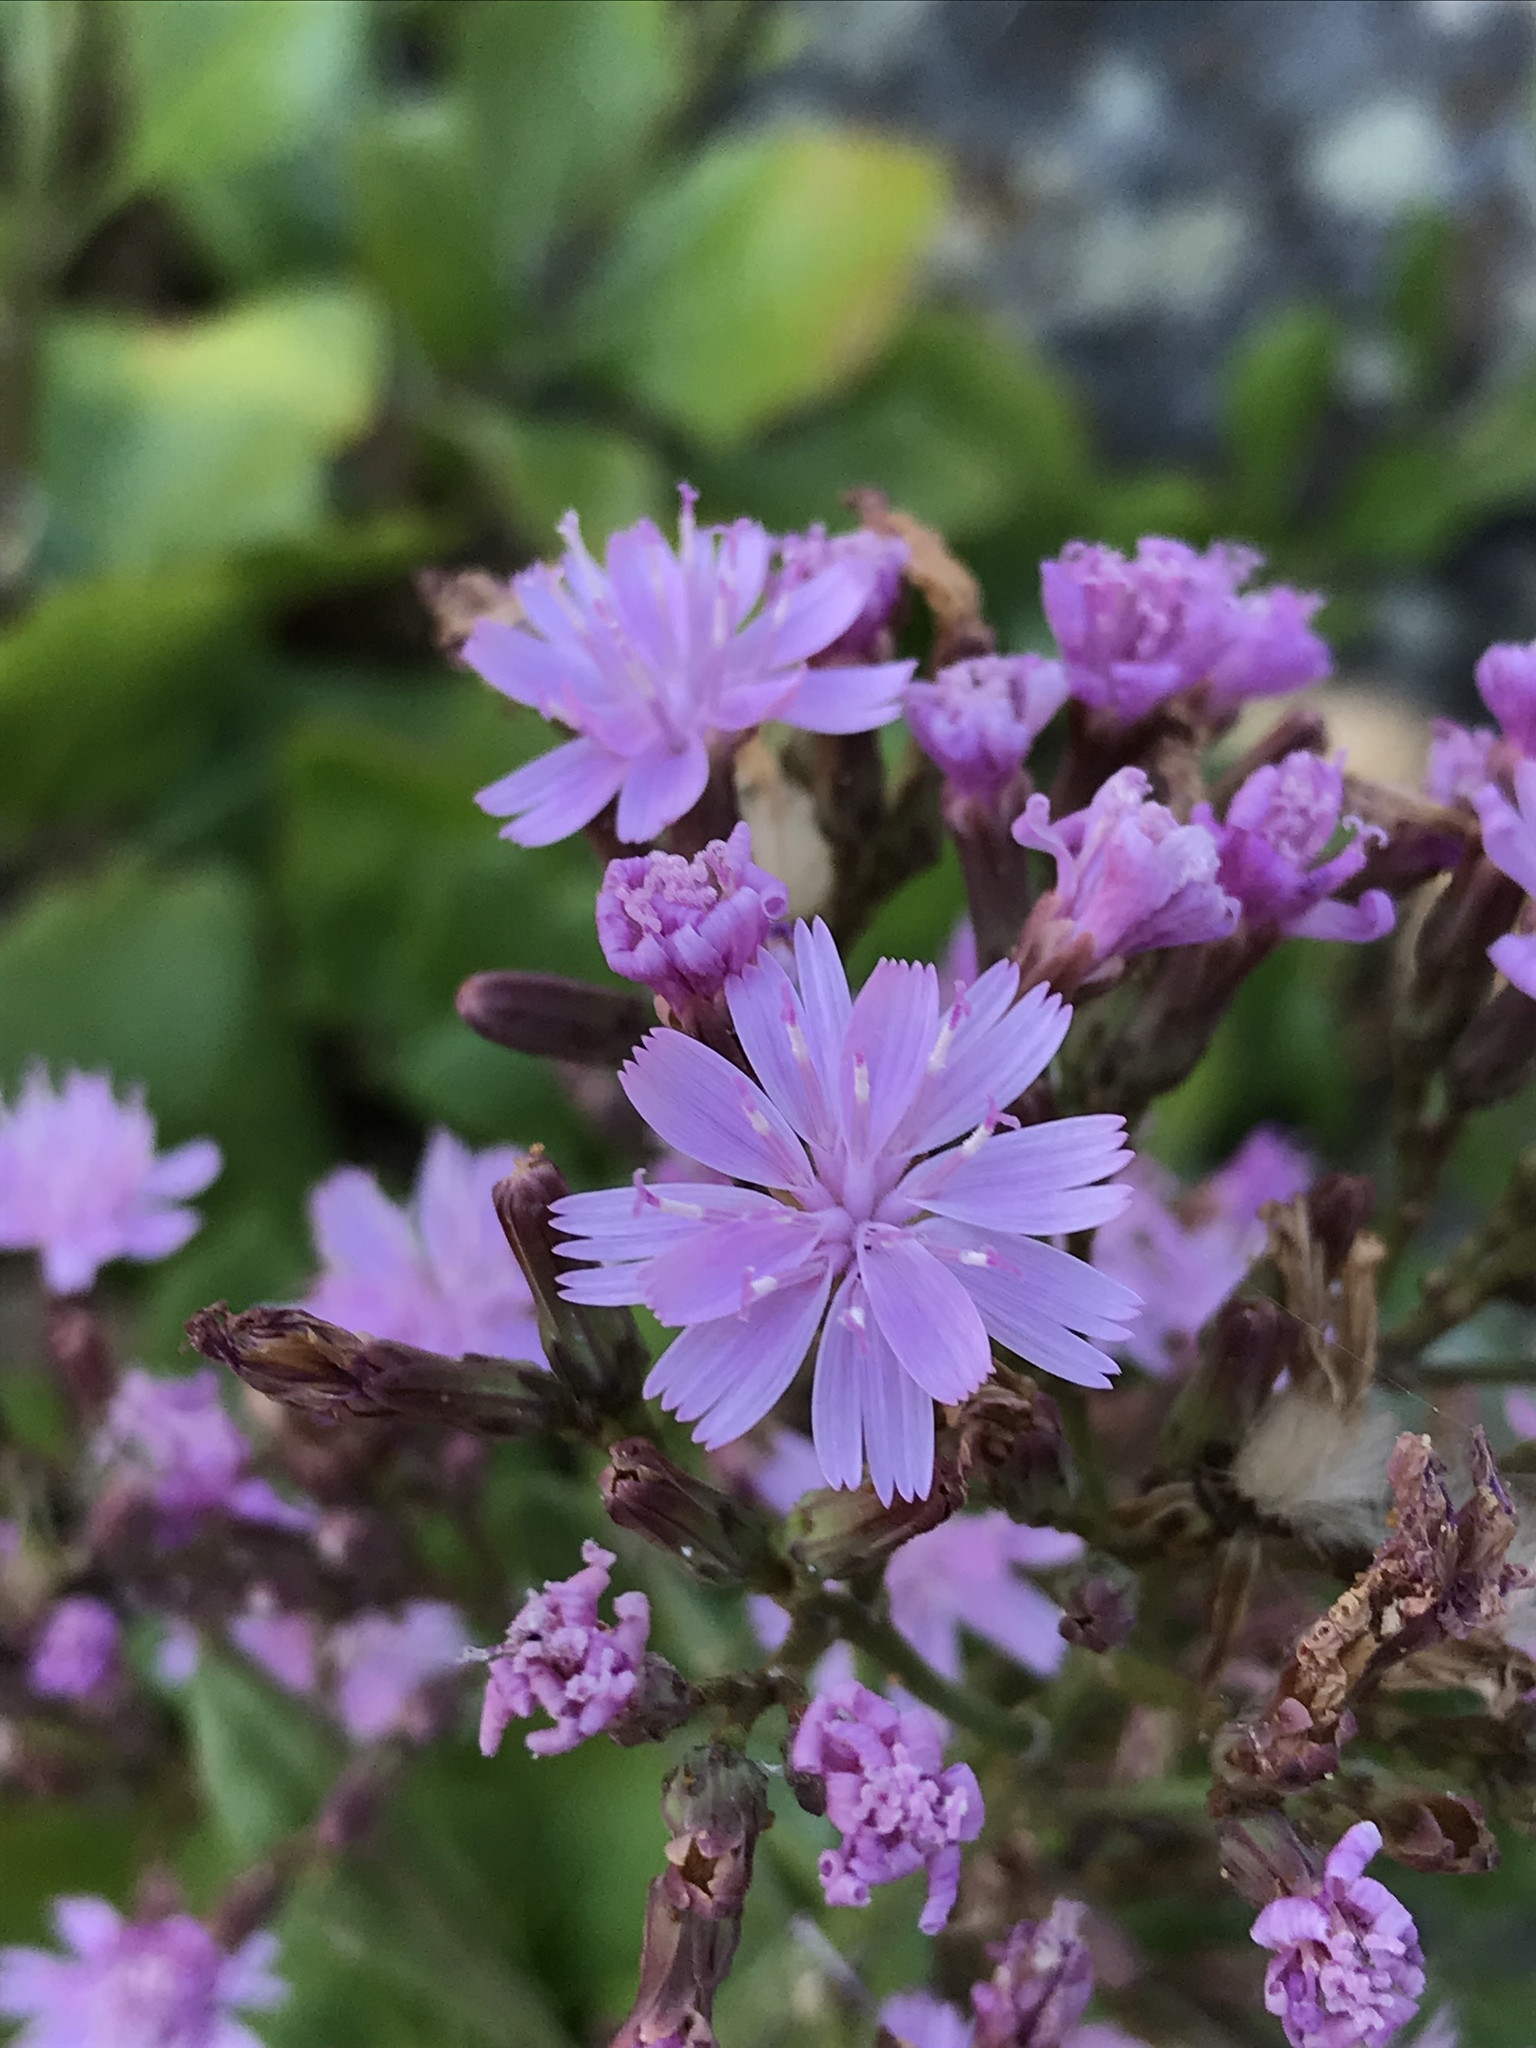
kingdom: Plantae
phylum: Tracheophyta
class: Magnoliopsida
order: Asterales
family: Asteraceae
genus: Munzothamnus
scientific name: Munzothamnus blairii
